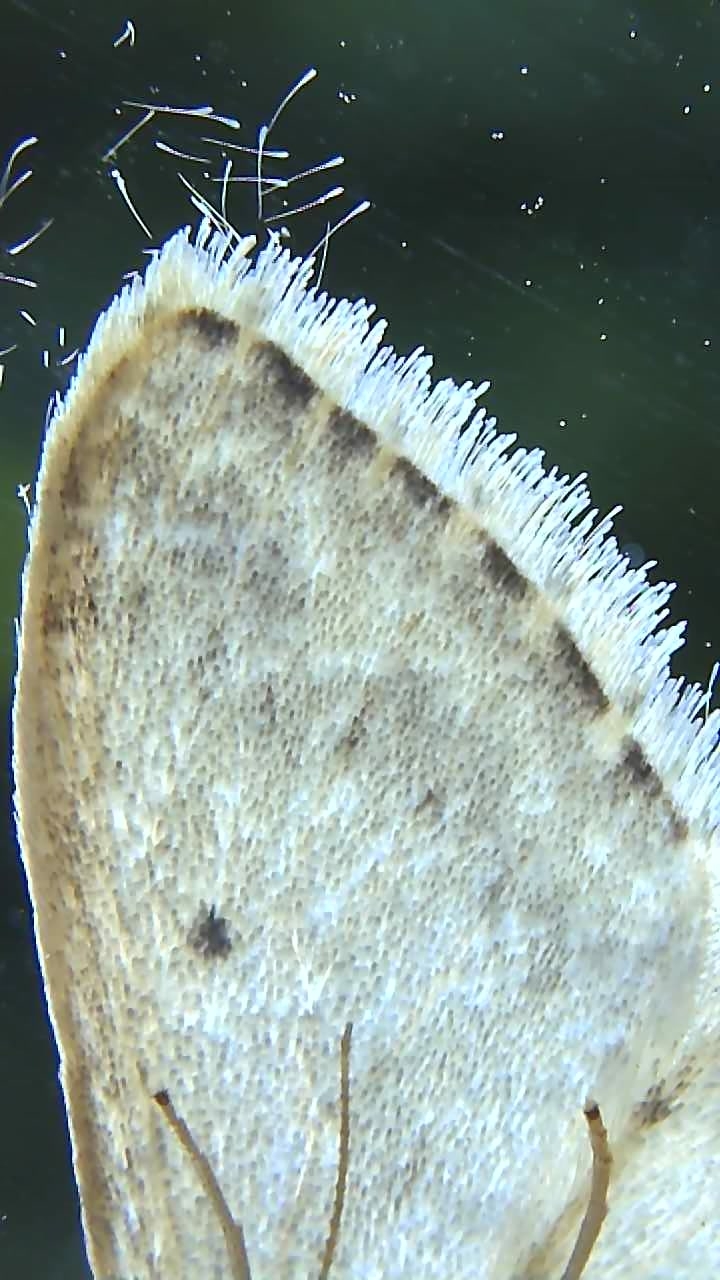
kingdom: Animalia
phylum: Arthropoda
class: Insecta
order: Lepidoptera
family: Geometridae
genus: Idaea
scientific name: Idaea seriata
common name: Small dusty wave
